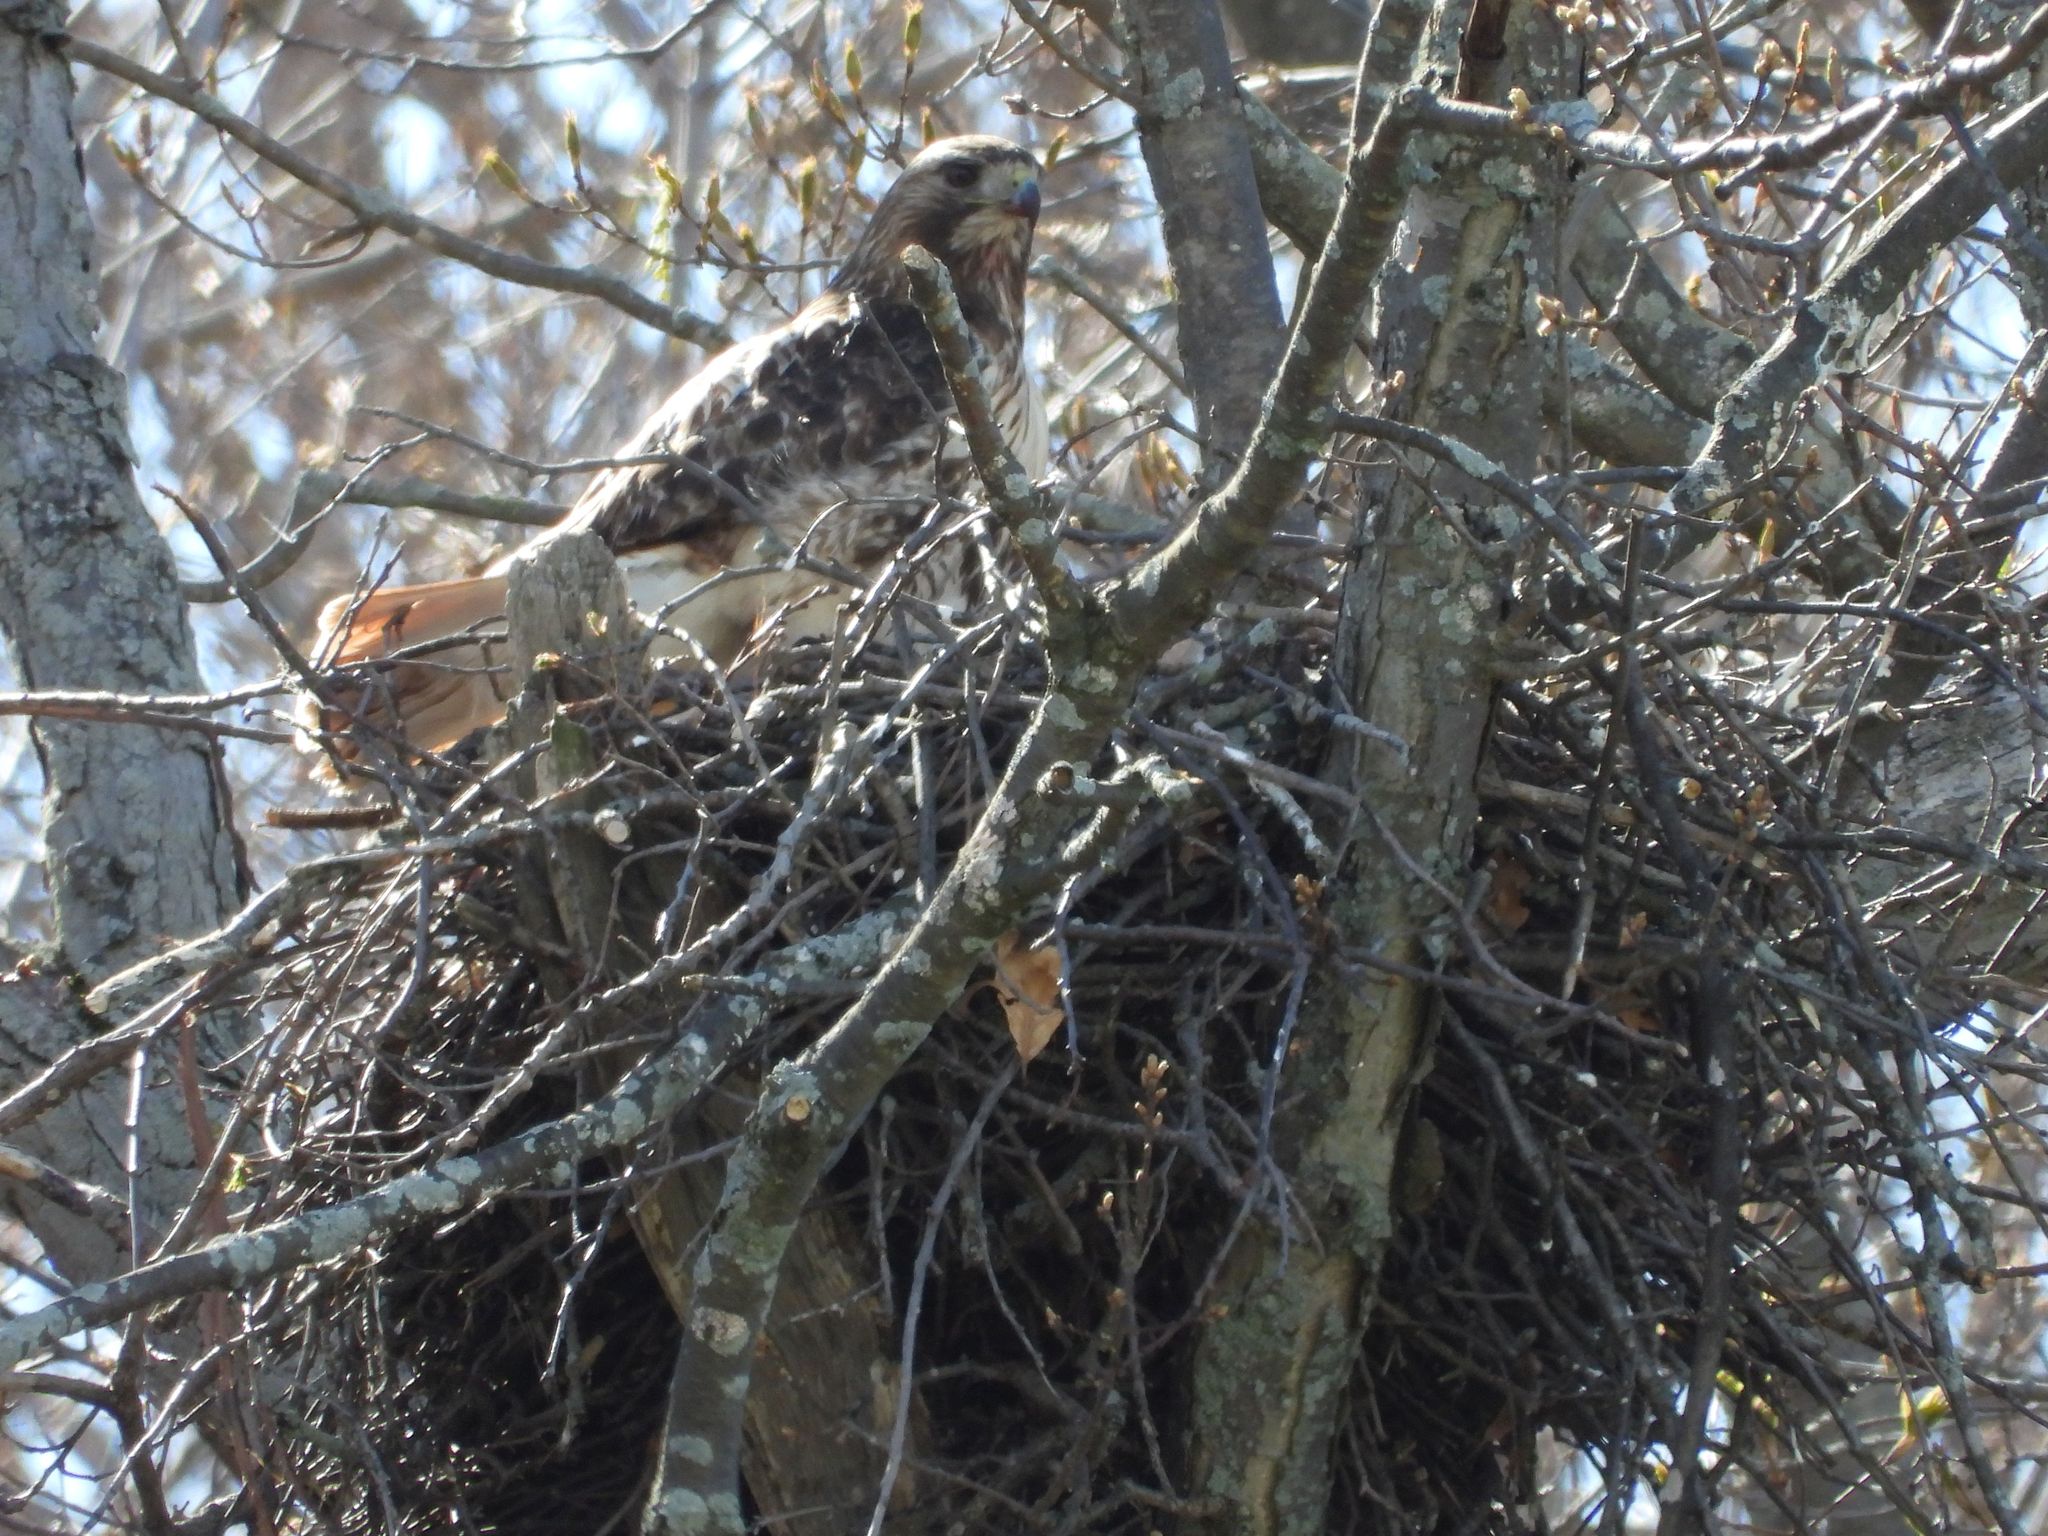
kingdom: Animalia
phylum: Chordata
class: Aves
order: Accipitriformes
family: Accipitridae
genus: Buteo
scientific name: Buteo jamaicensis
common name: Red-tailed hawk
